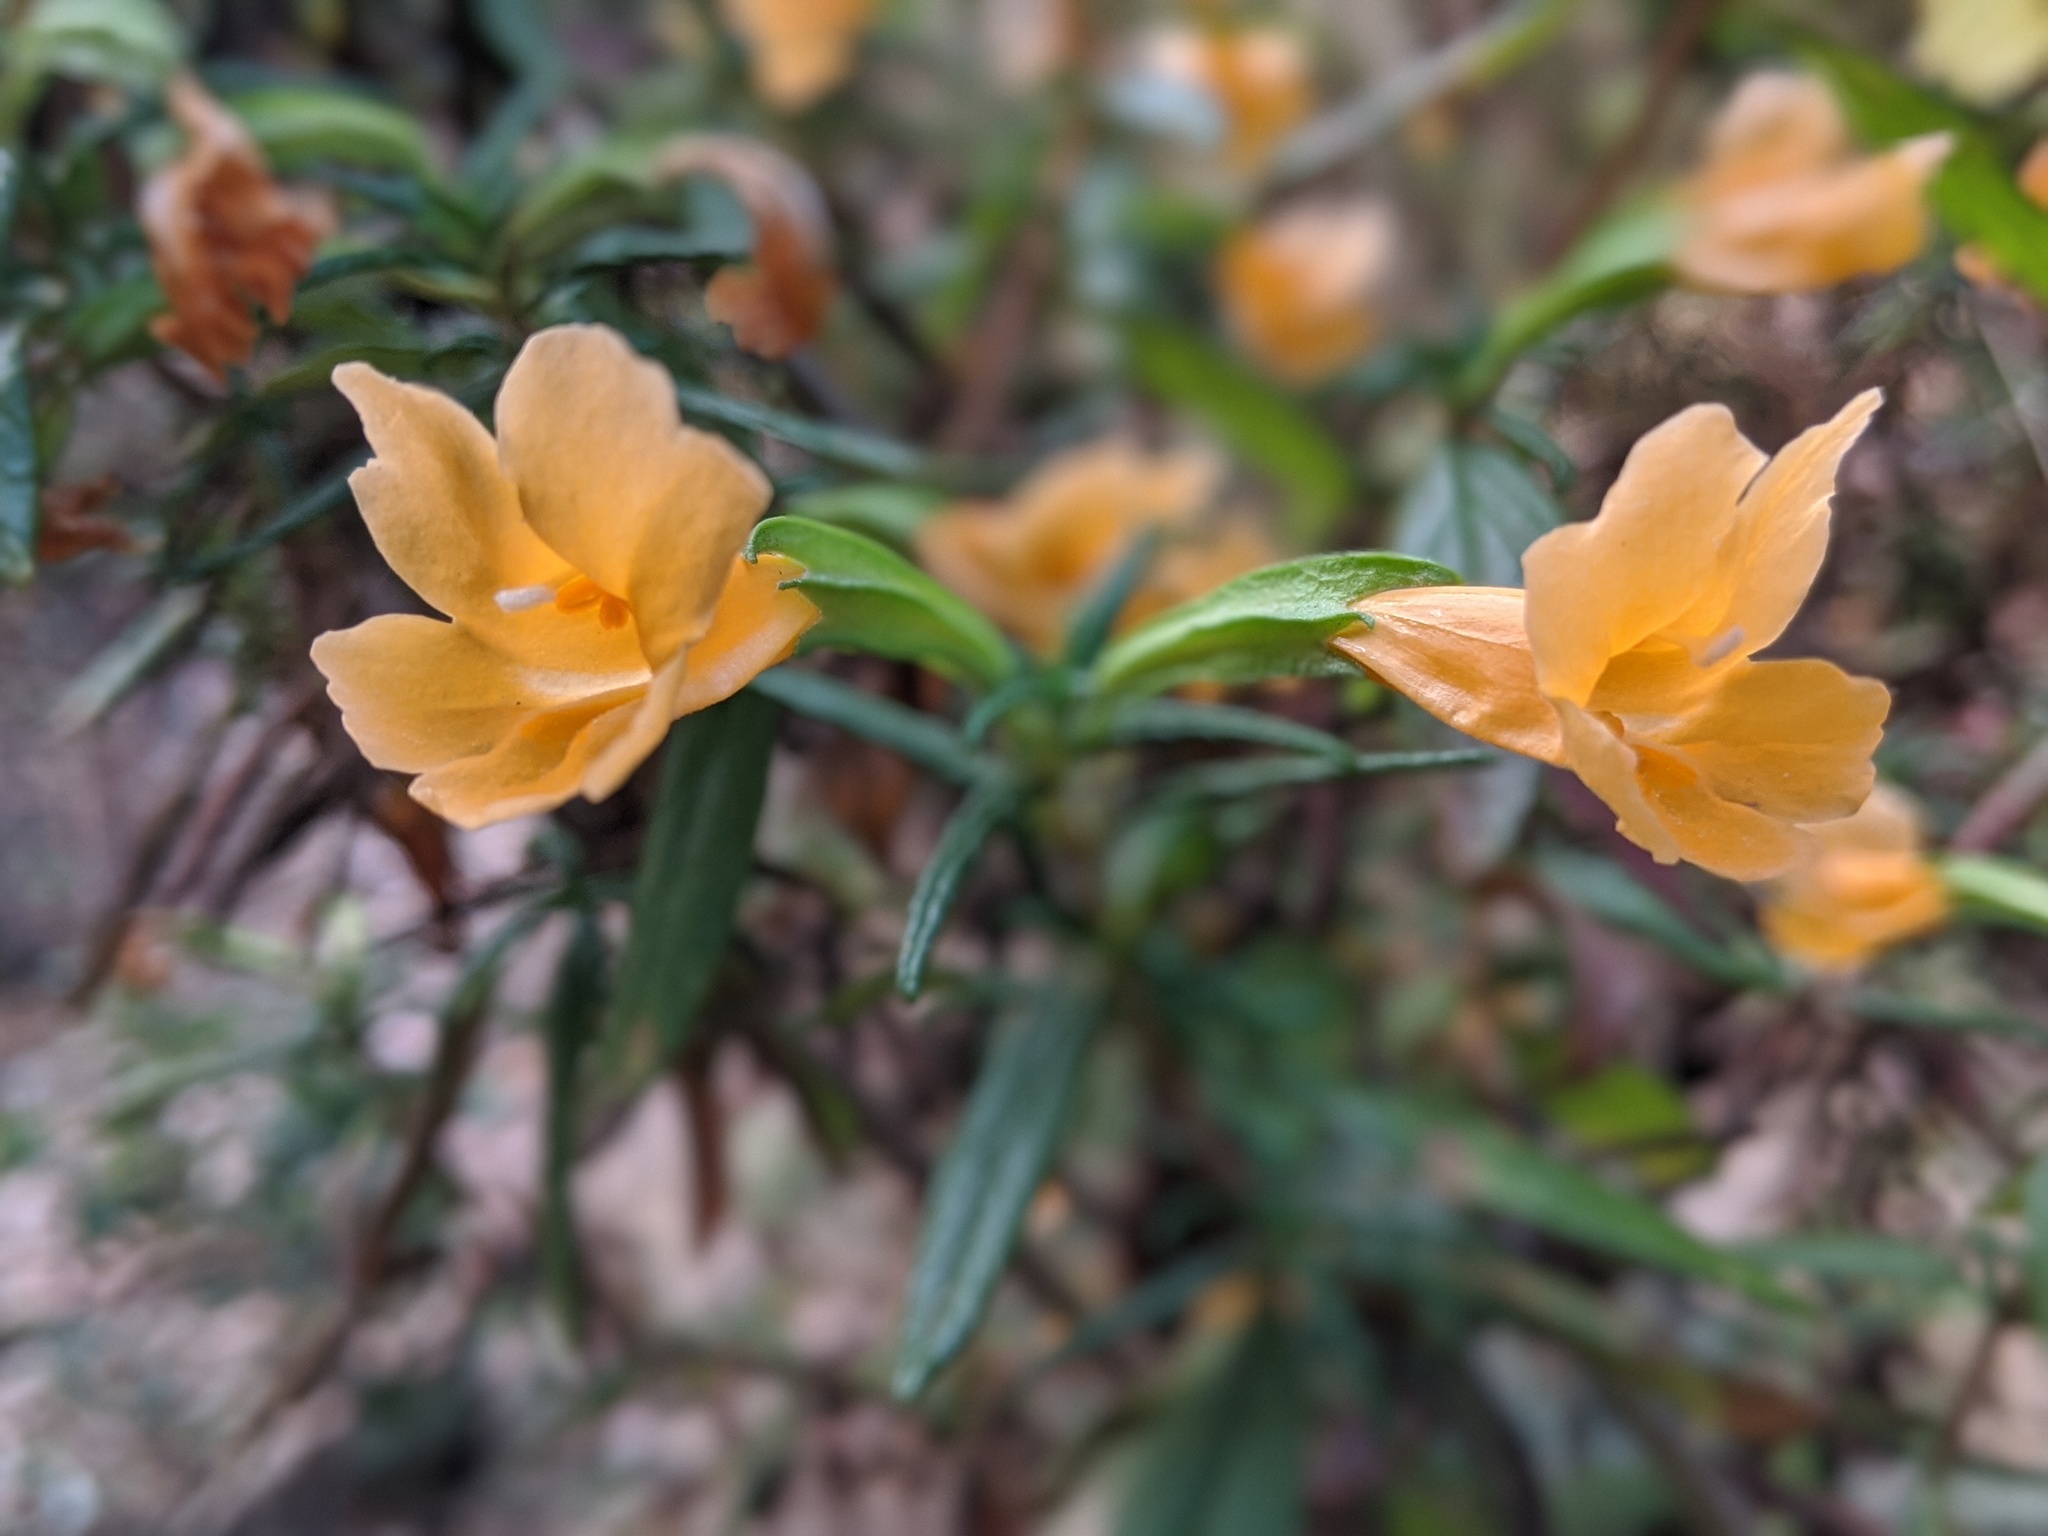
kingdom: Plantae
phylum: Tracheophyta
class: Magnoliopsida
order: Lamiales
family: Phrymaceae
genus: Diplacus
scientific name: Diplacus aurantiacus
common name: Bush monkey-flower
